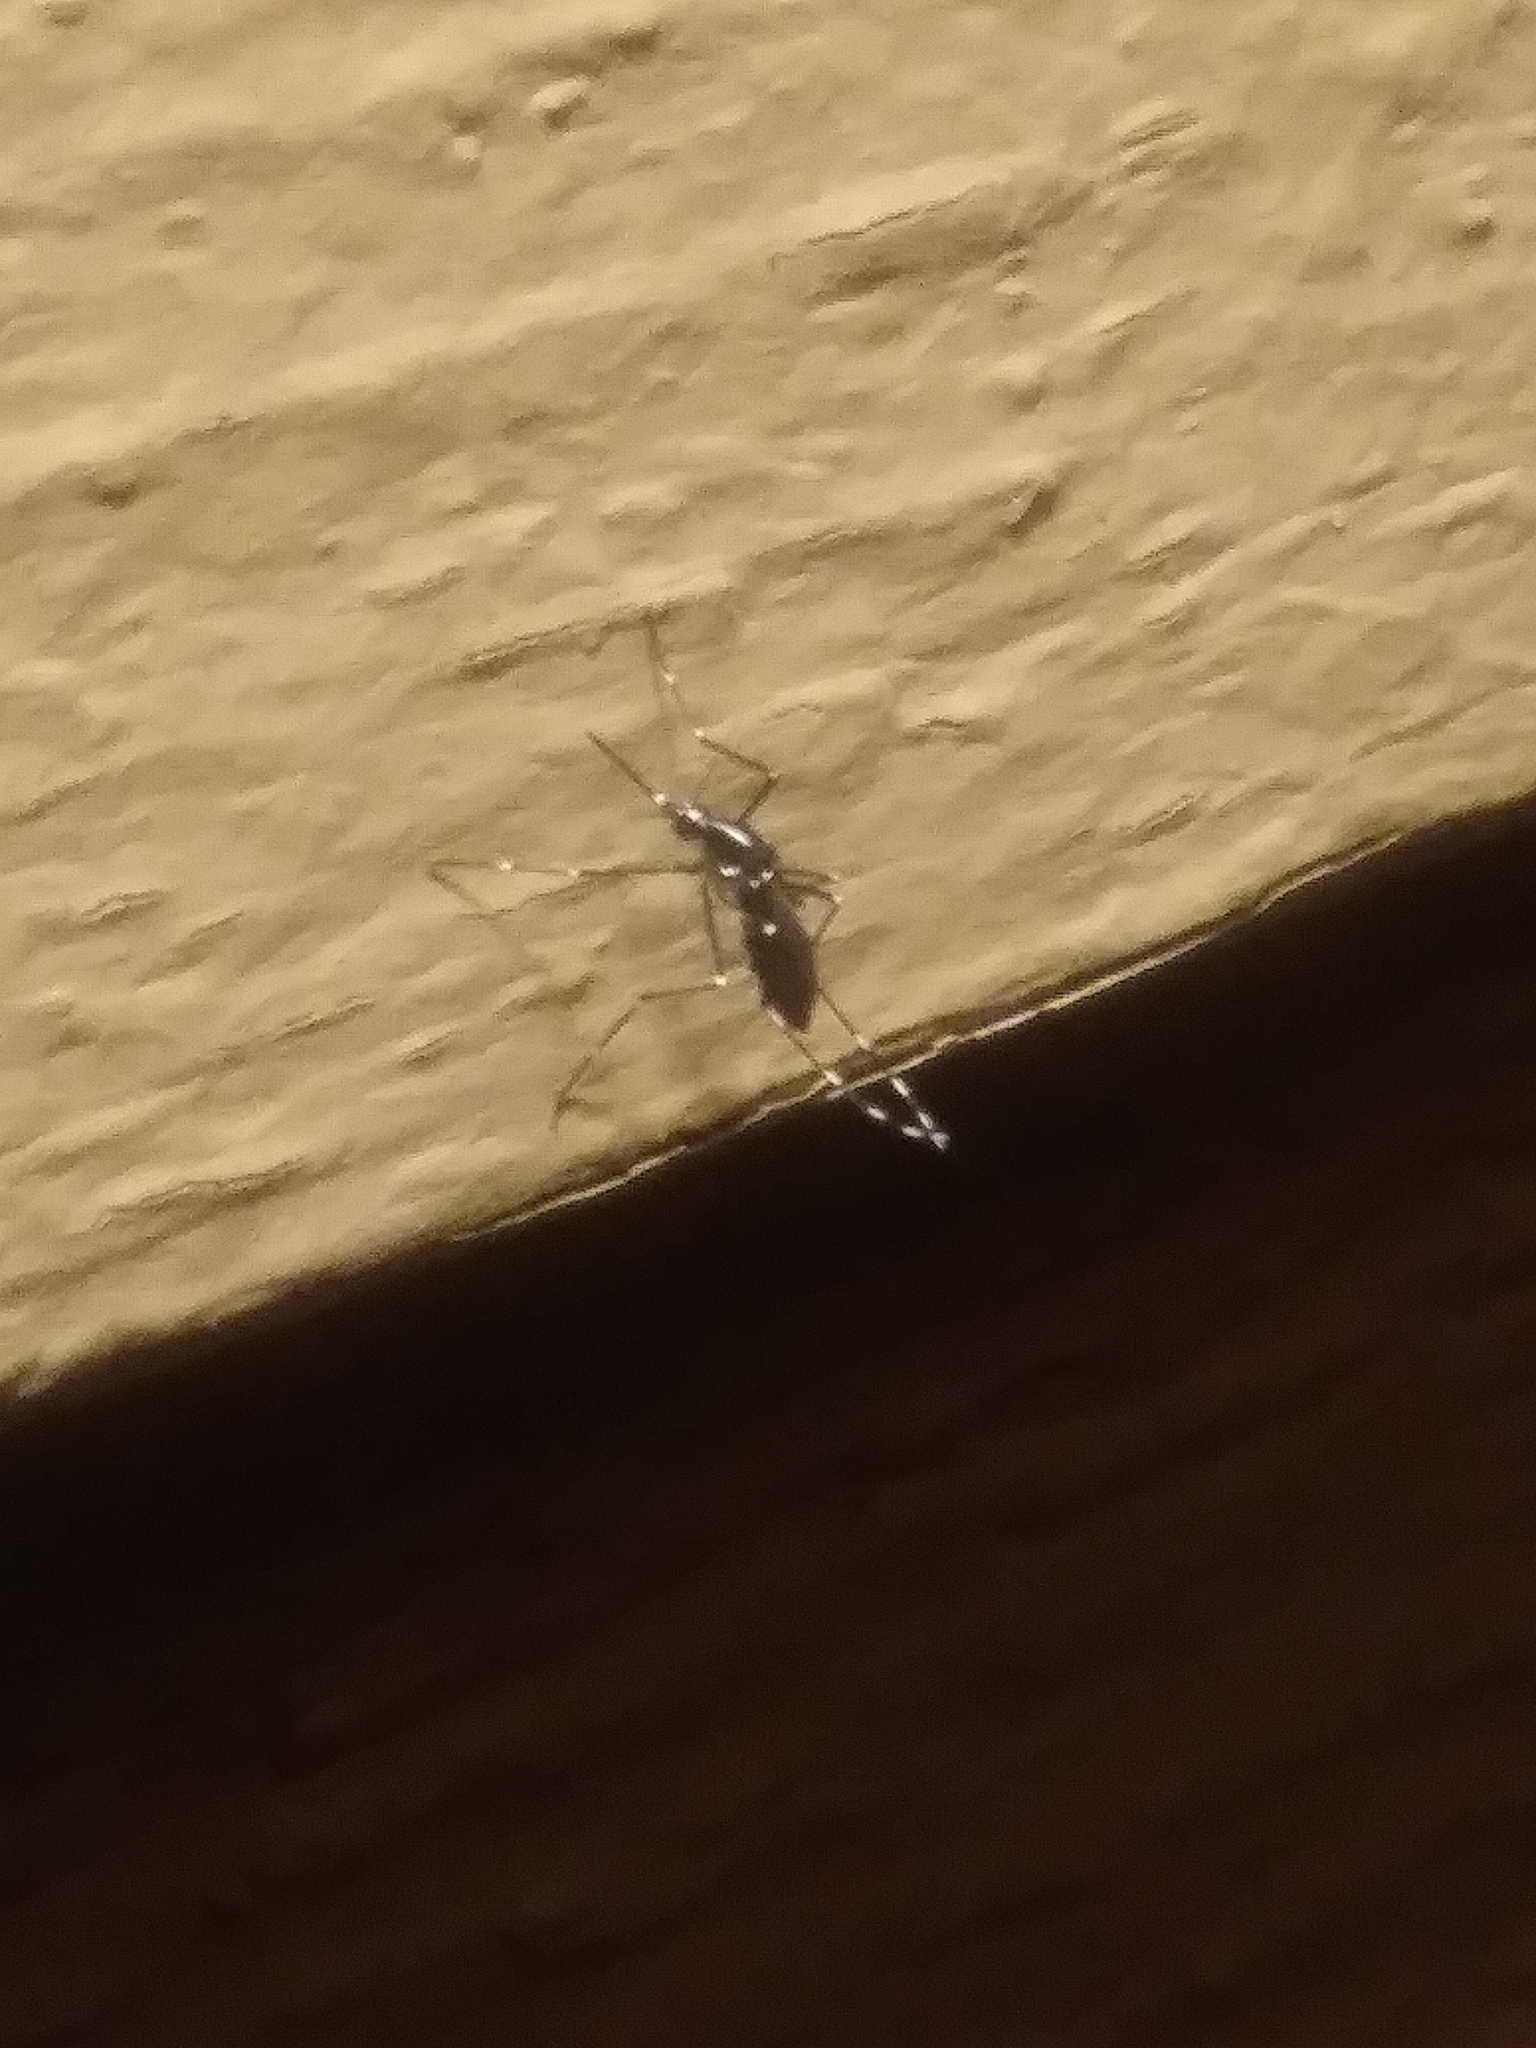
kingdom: Animalia
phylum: Arthropoda
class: Insecta
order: Diptera
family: Culicidae
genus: Aedes
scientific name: Aedes albopictus
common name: Tiger mosquito
